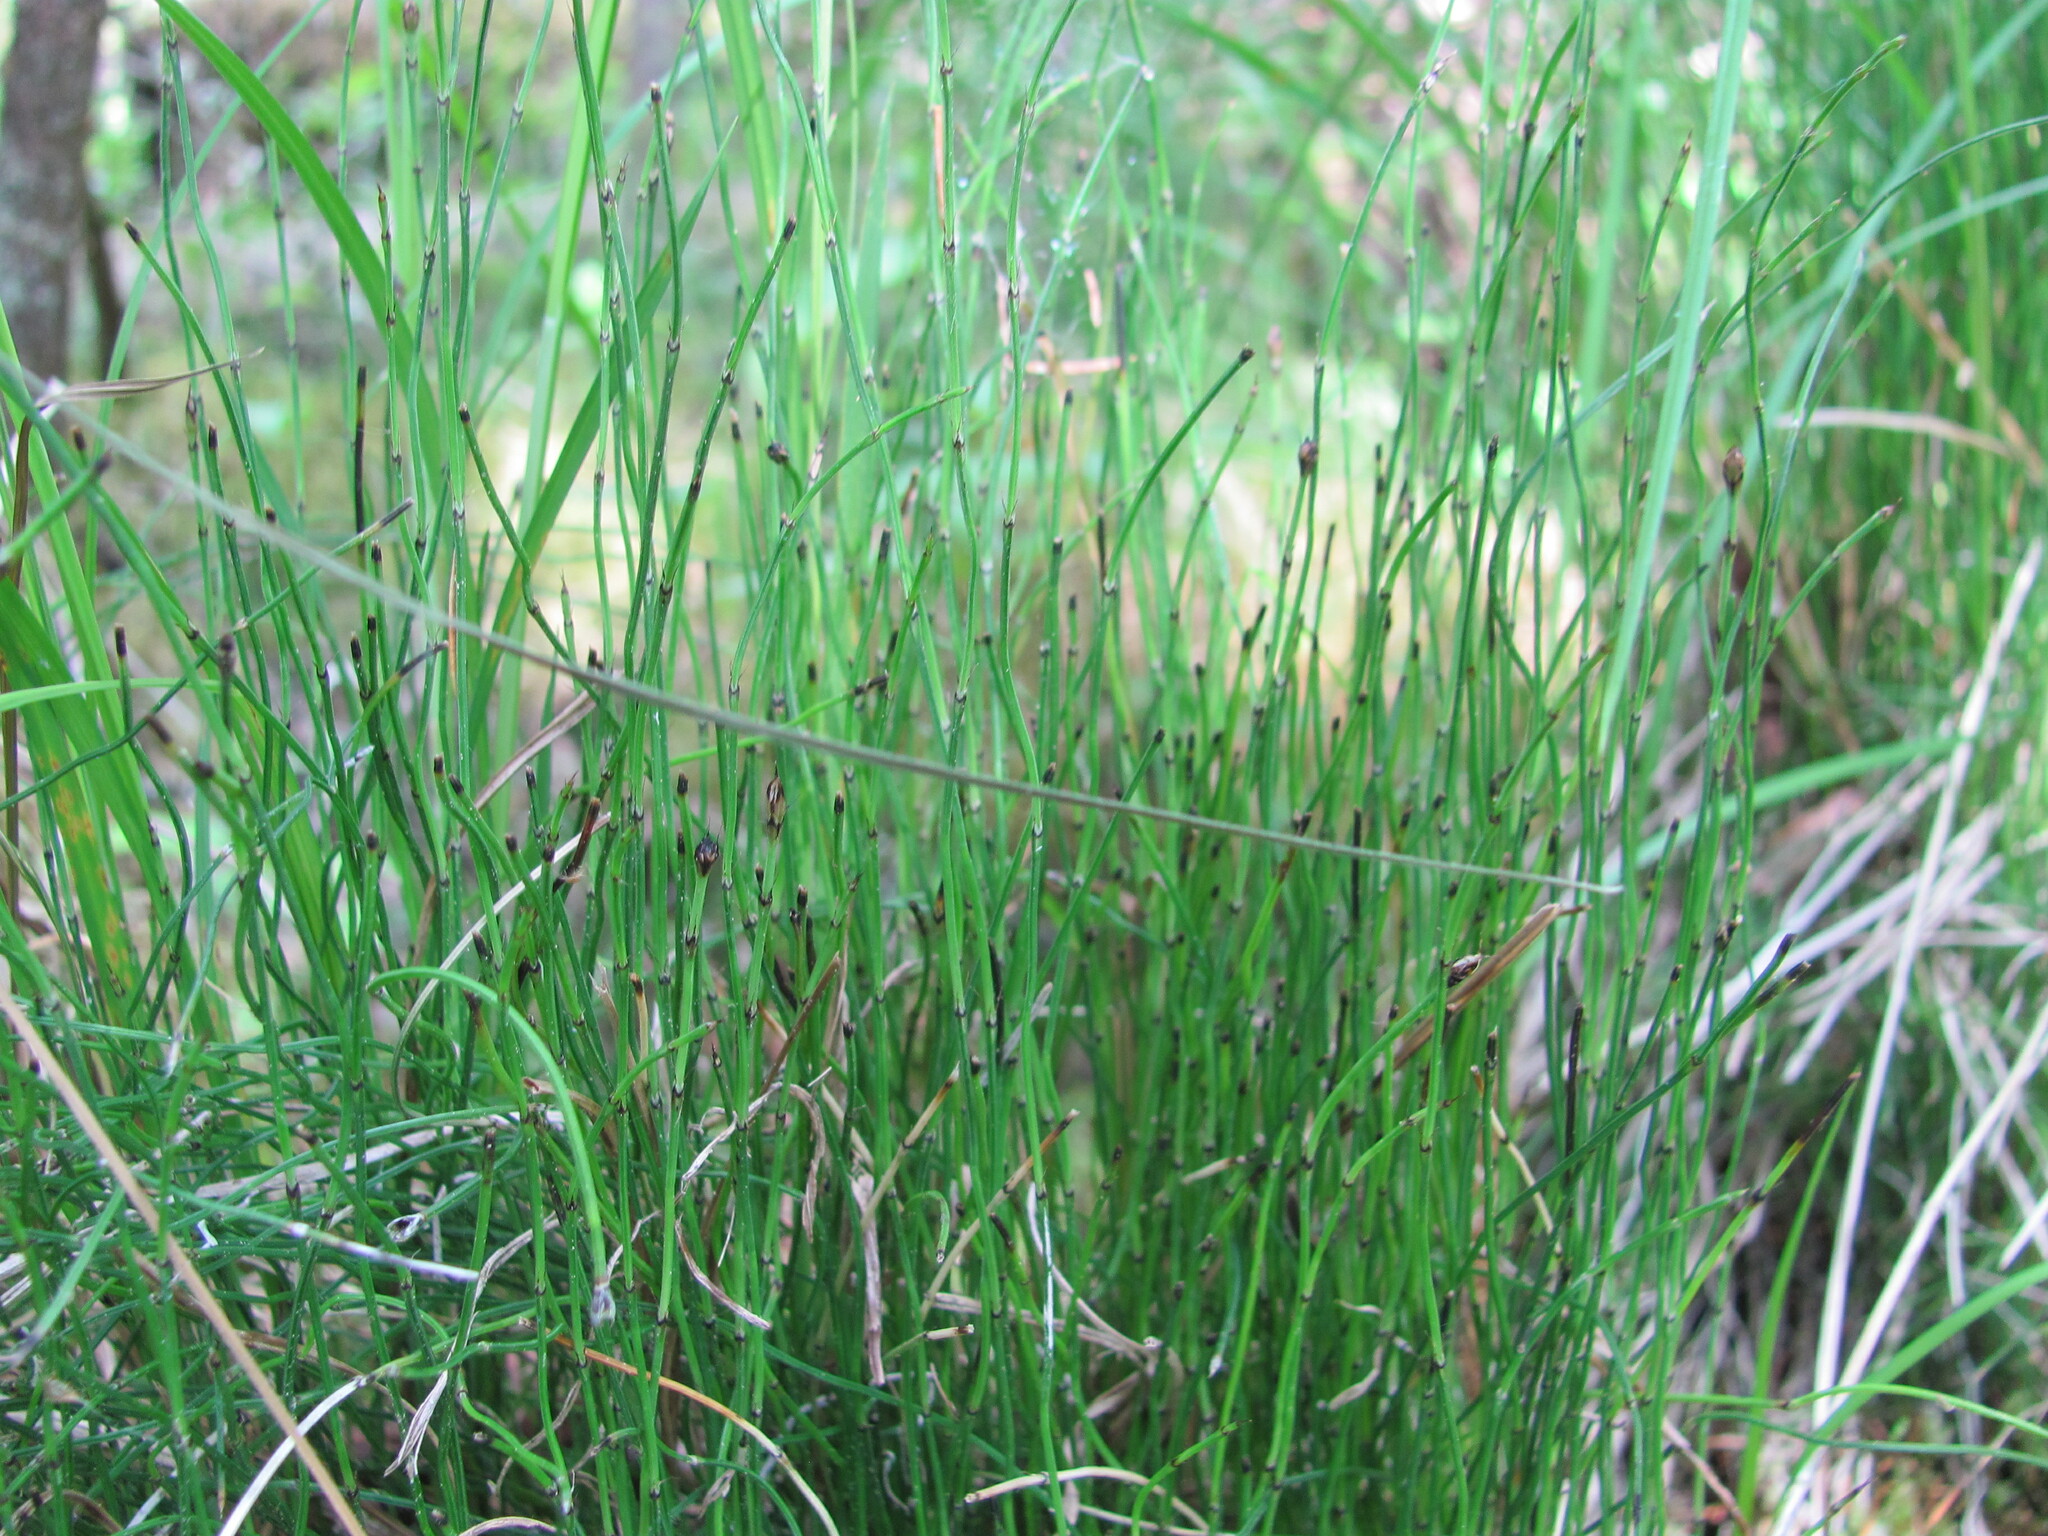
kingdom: Plantae
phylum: Tracheophyta
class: Polypodiopsida
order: Equisetales
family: Equisetaceae
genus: Equisetum
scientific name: Equisetum scirpoides
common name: Delicate horsetail
